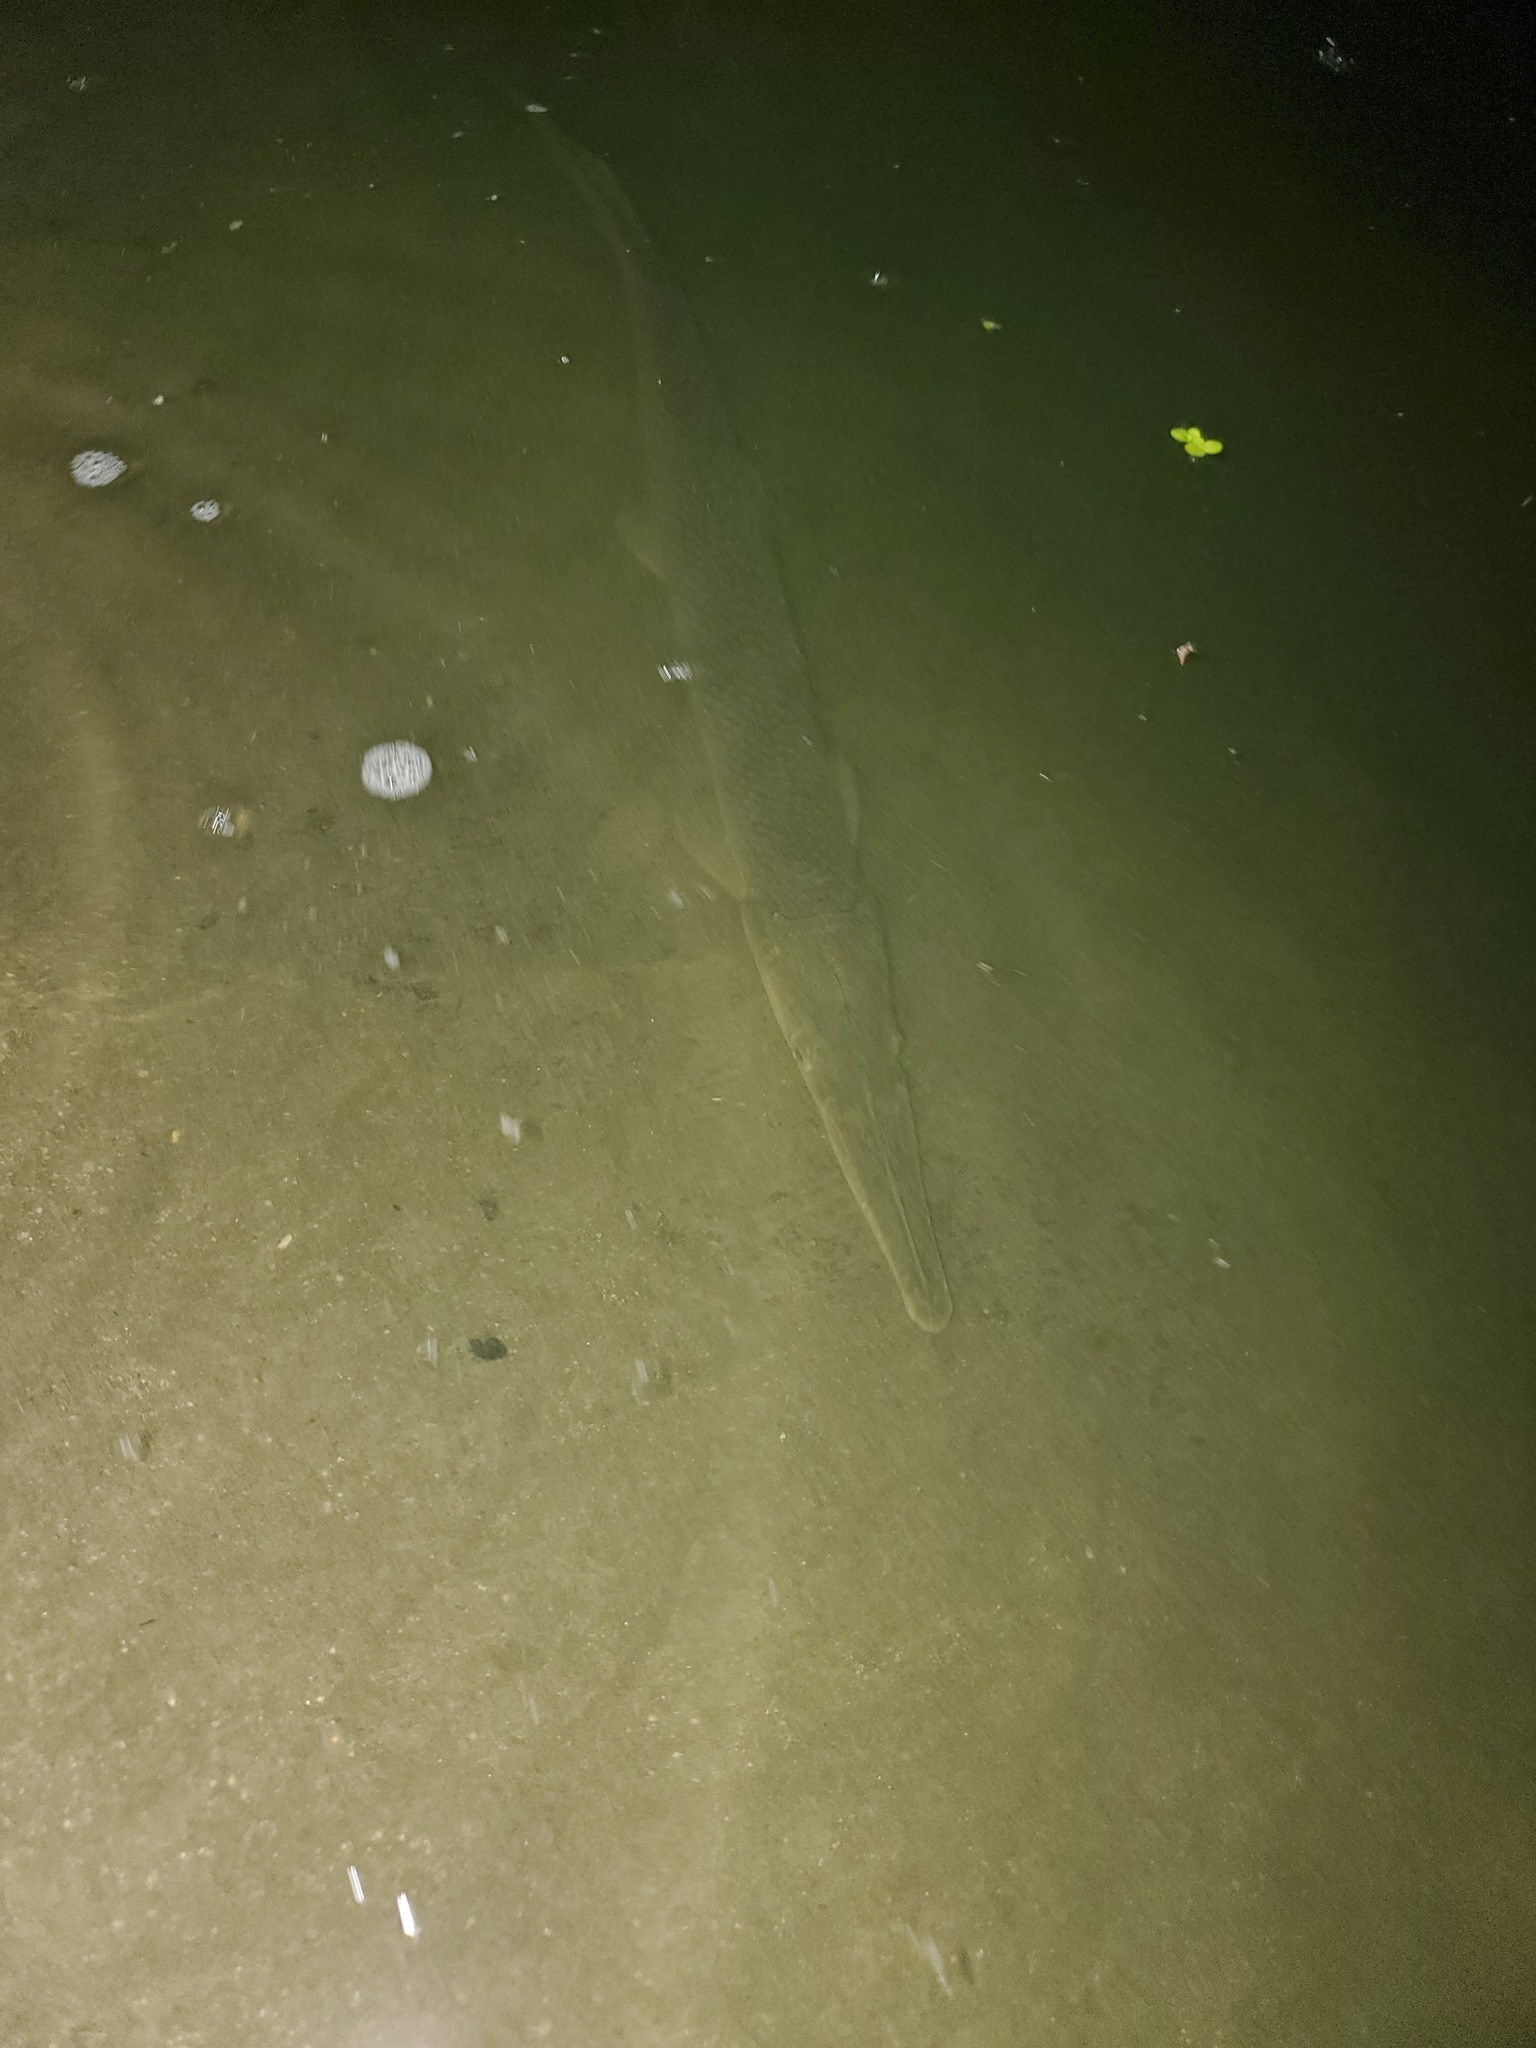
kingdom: Animalia
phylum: Chordata
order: Lepisosteiformes
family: Lepisosteidae
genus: Lepisosteus
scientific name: Lepisosteus platostomus
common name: Shortnose gar
